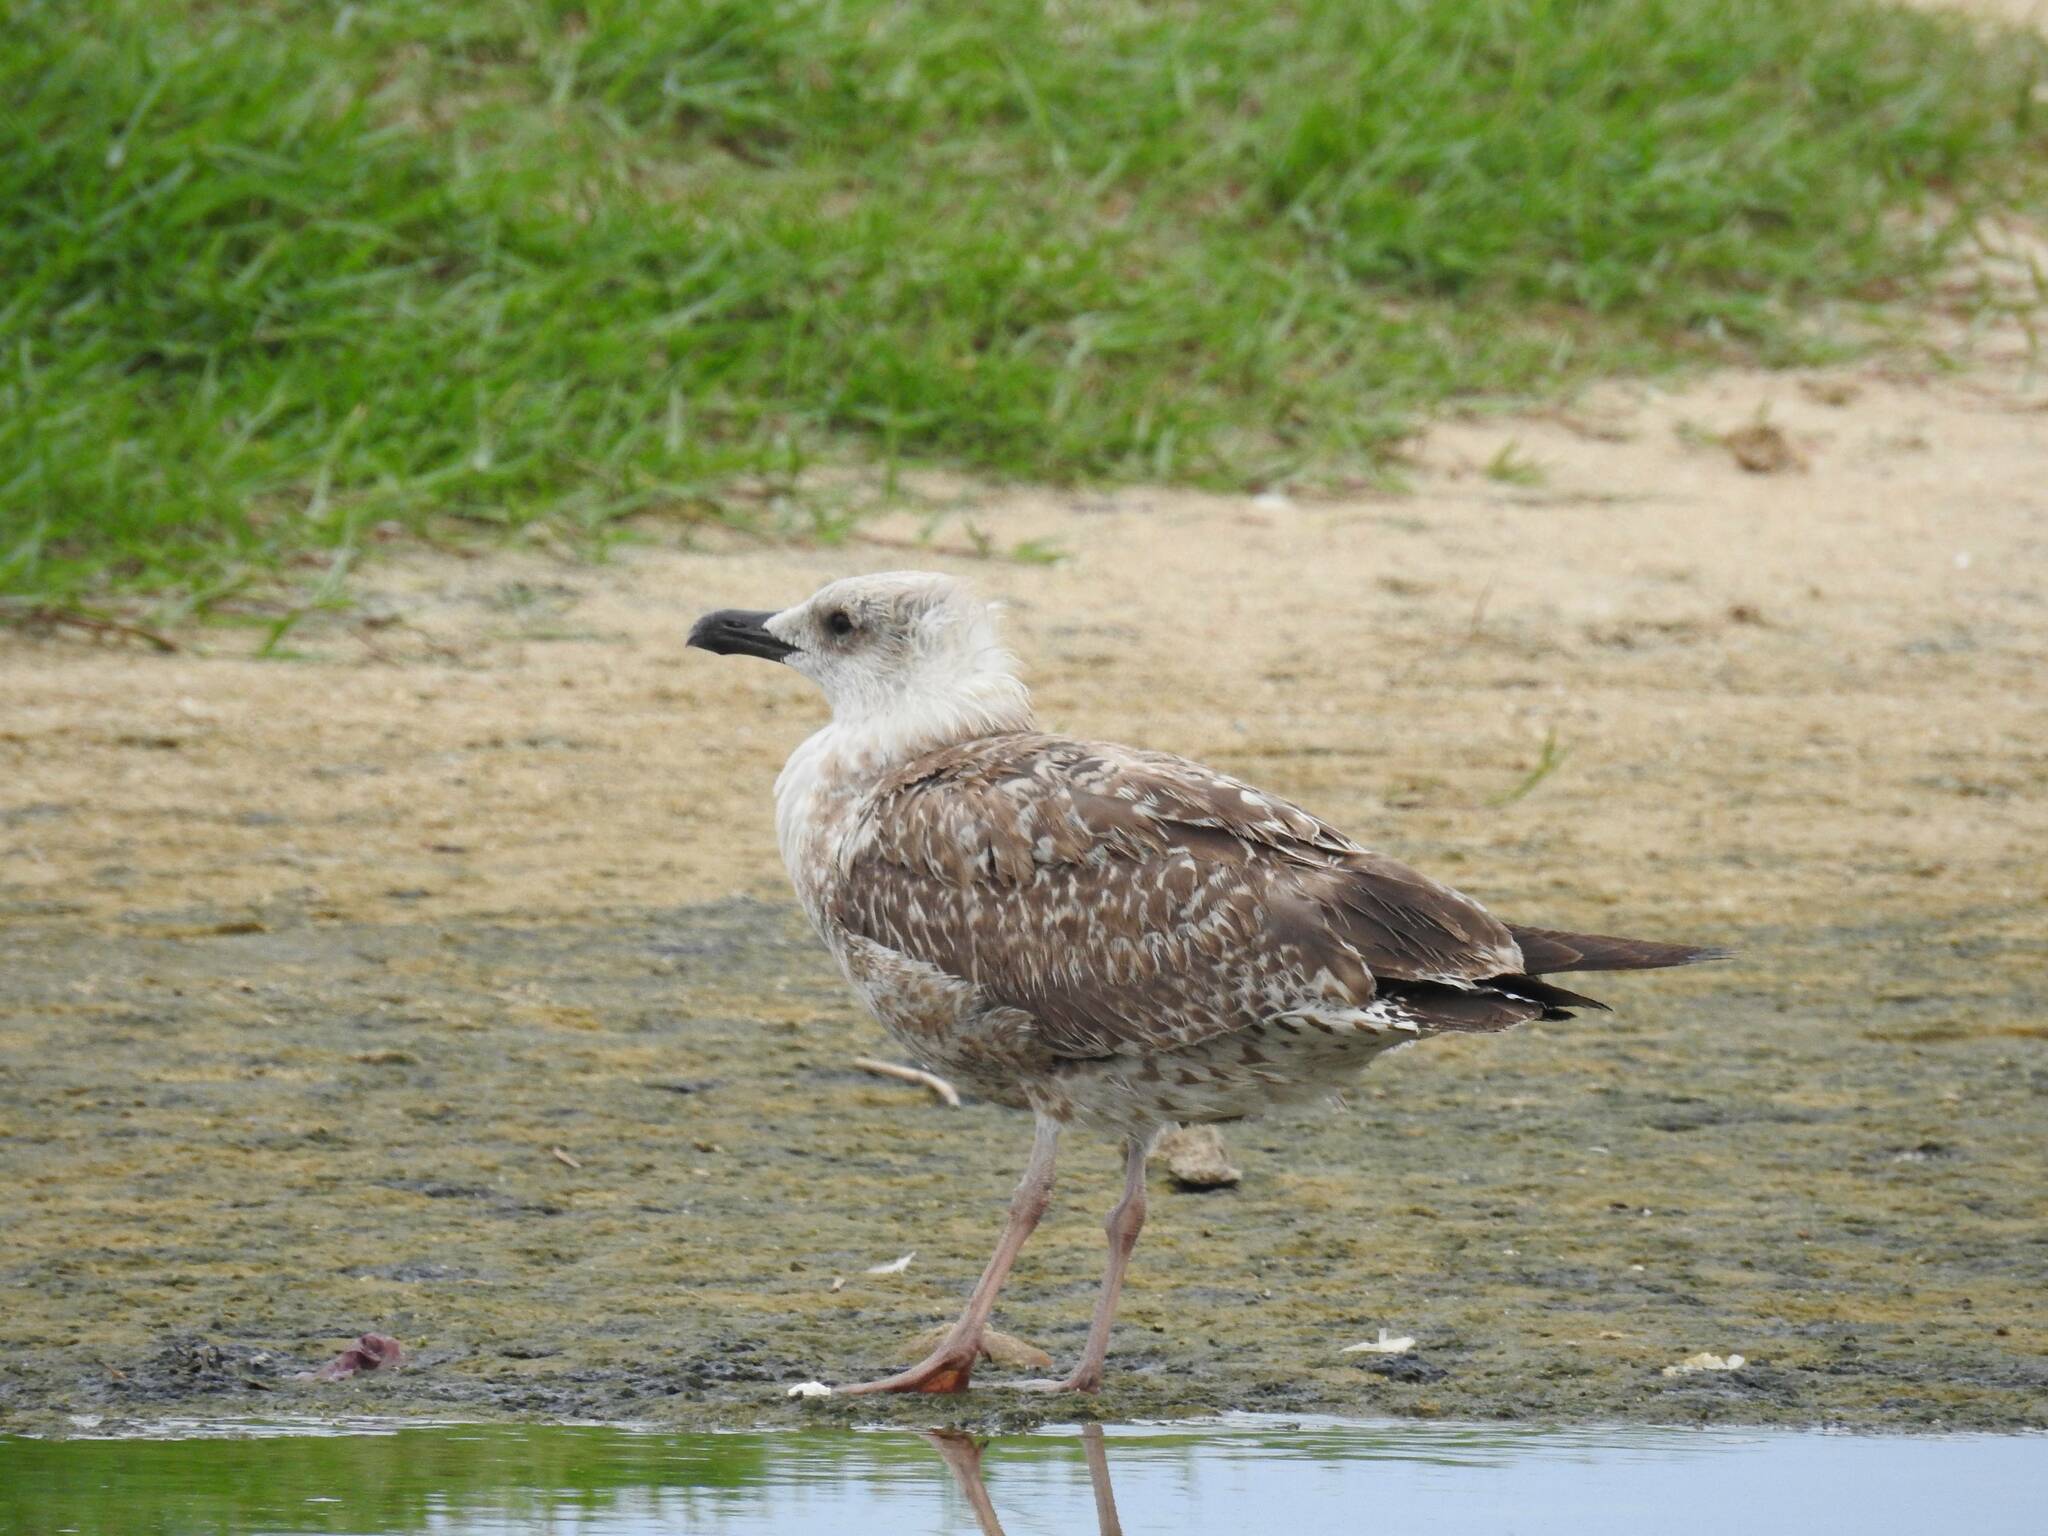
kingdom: Animalia
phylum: Chordata
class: Aves
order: Charadriiformes
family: Laridae
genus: Larus
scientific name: Larus michahellis
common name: Yellow-legged gull
